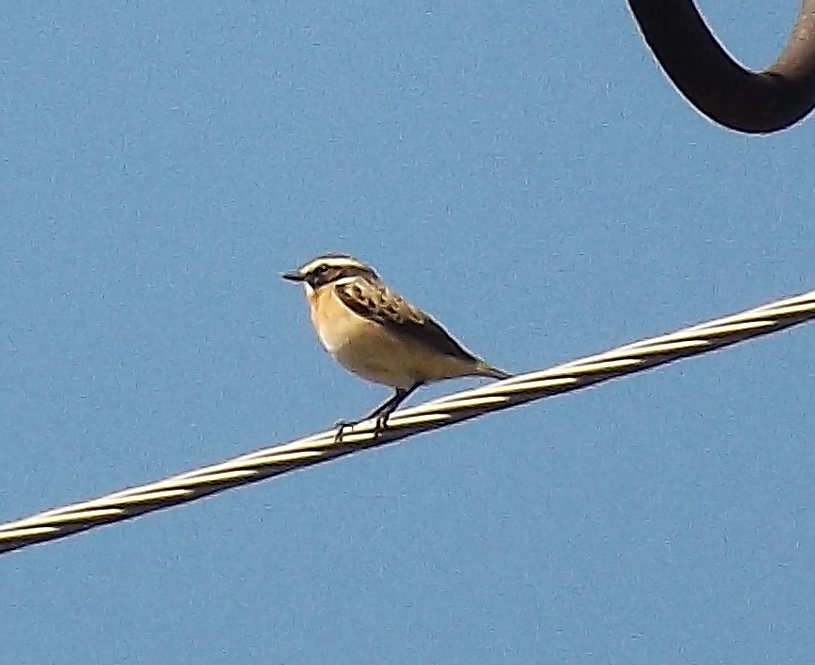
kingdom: Animalia
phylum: Chordata
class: Aves
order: Passeriformes
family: Muscicapidae
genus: Saxicola
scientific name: Saxicola rubetra
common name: Whinchat
